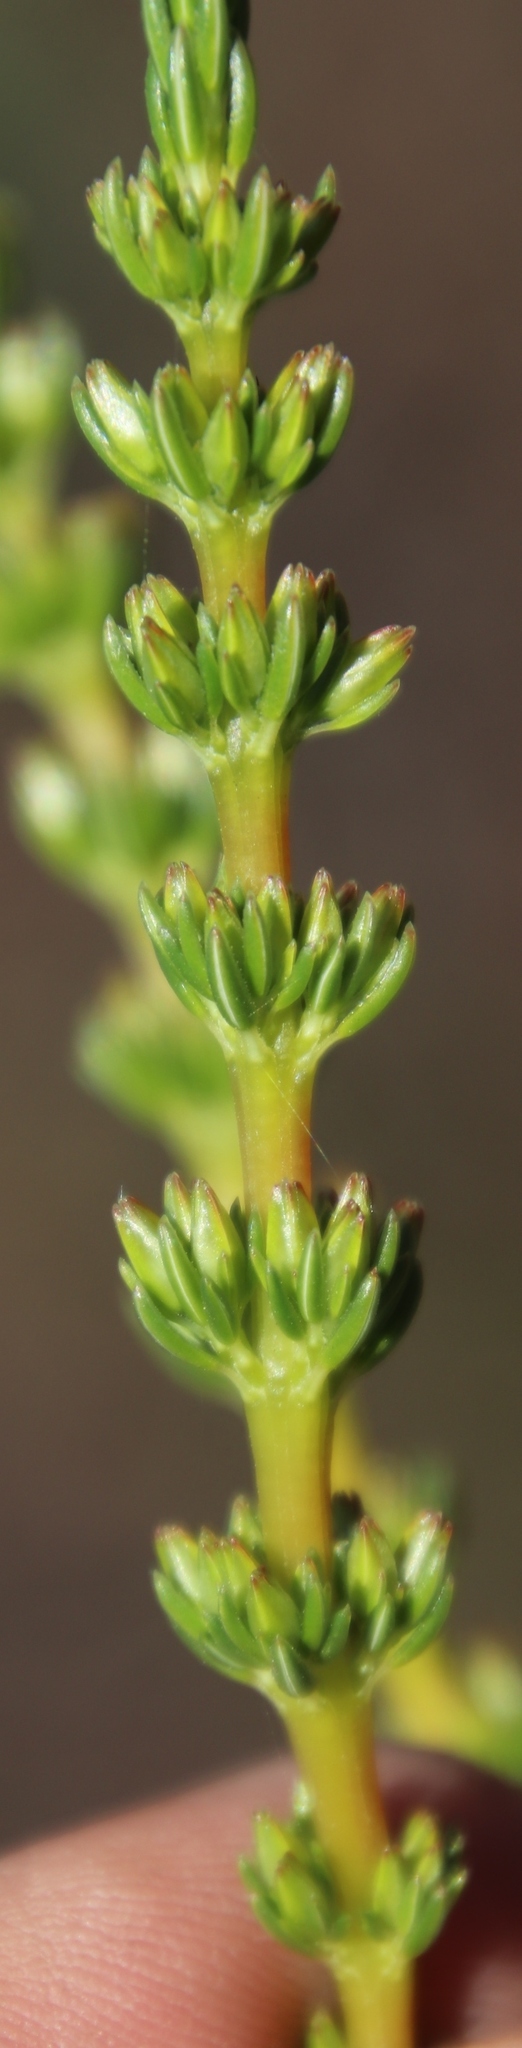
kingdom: Plantae
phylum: Tracheophyta
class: Magnoliopsida
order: Ericales
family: Ericaceae
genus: Erica
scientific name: Erica mammosa
